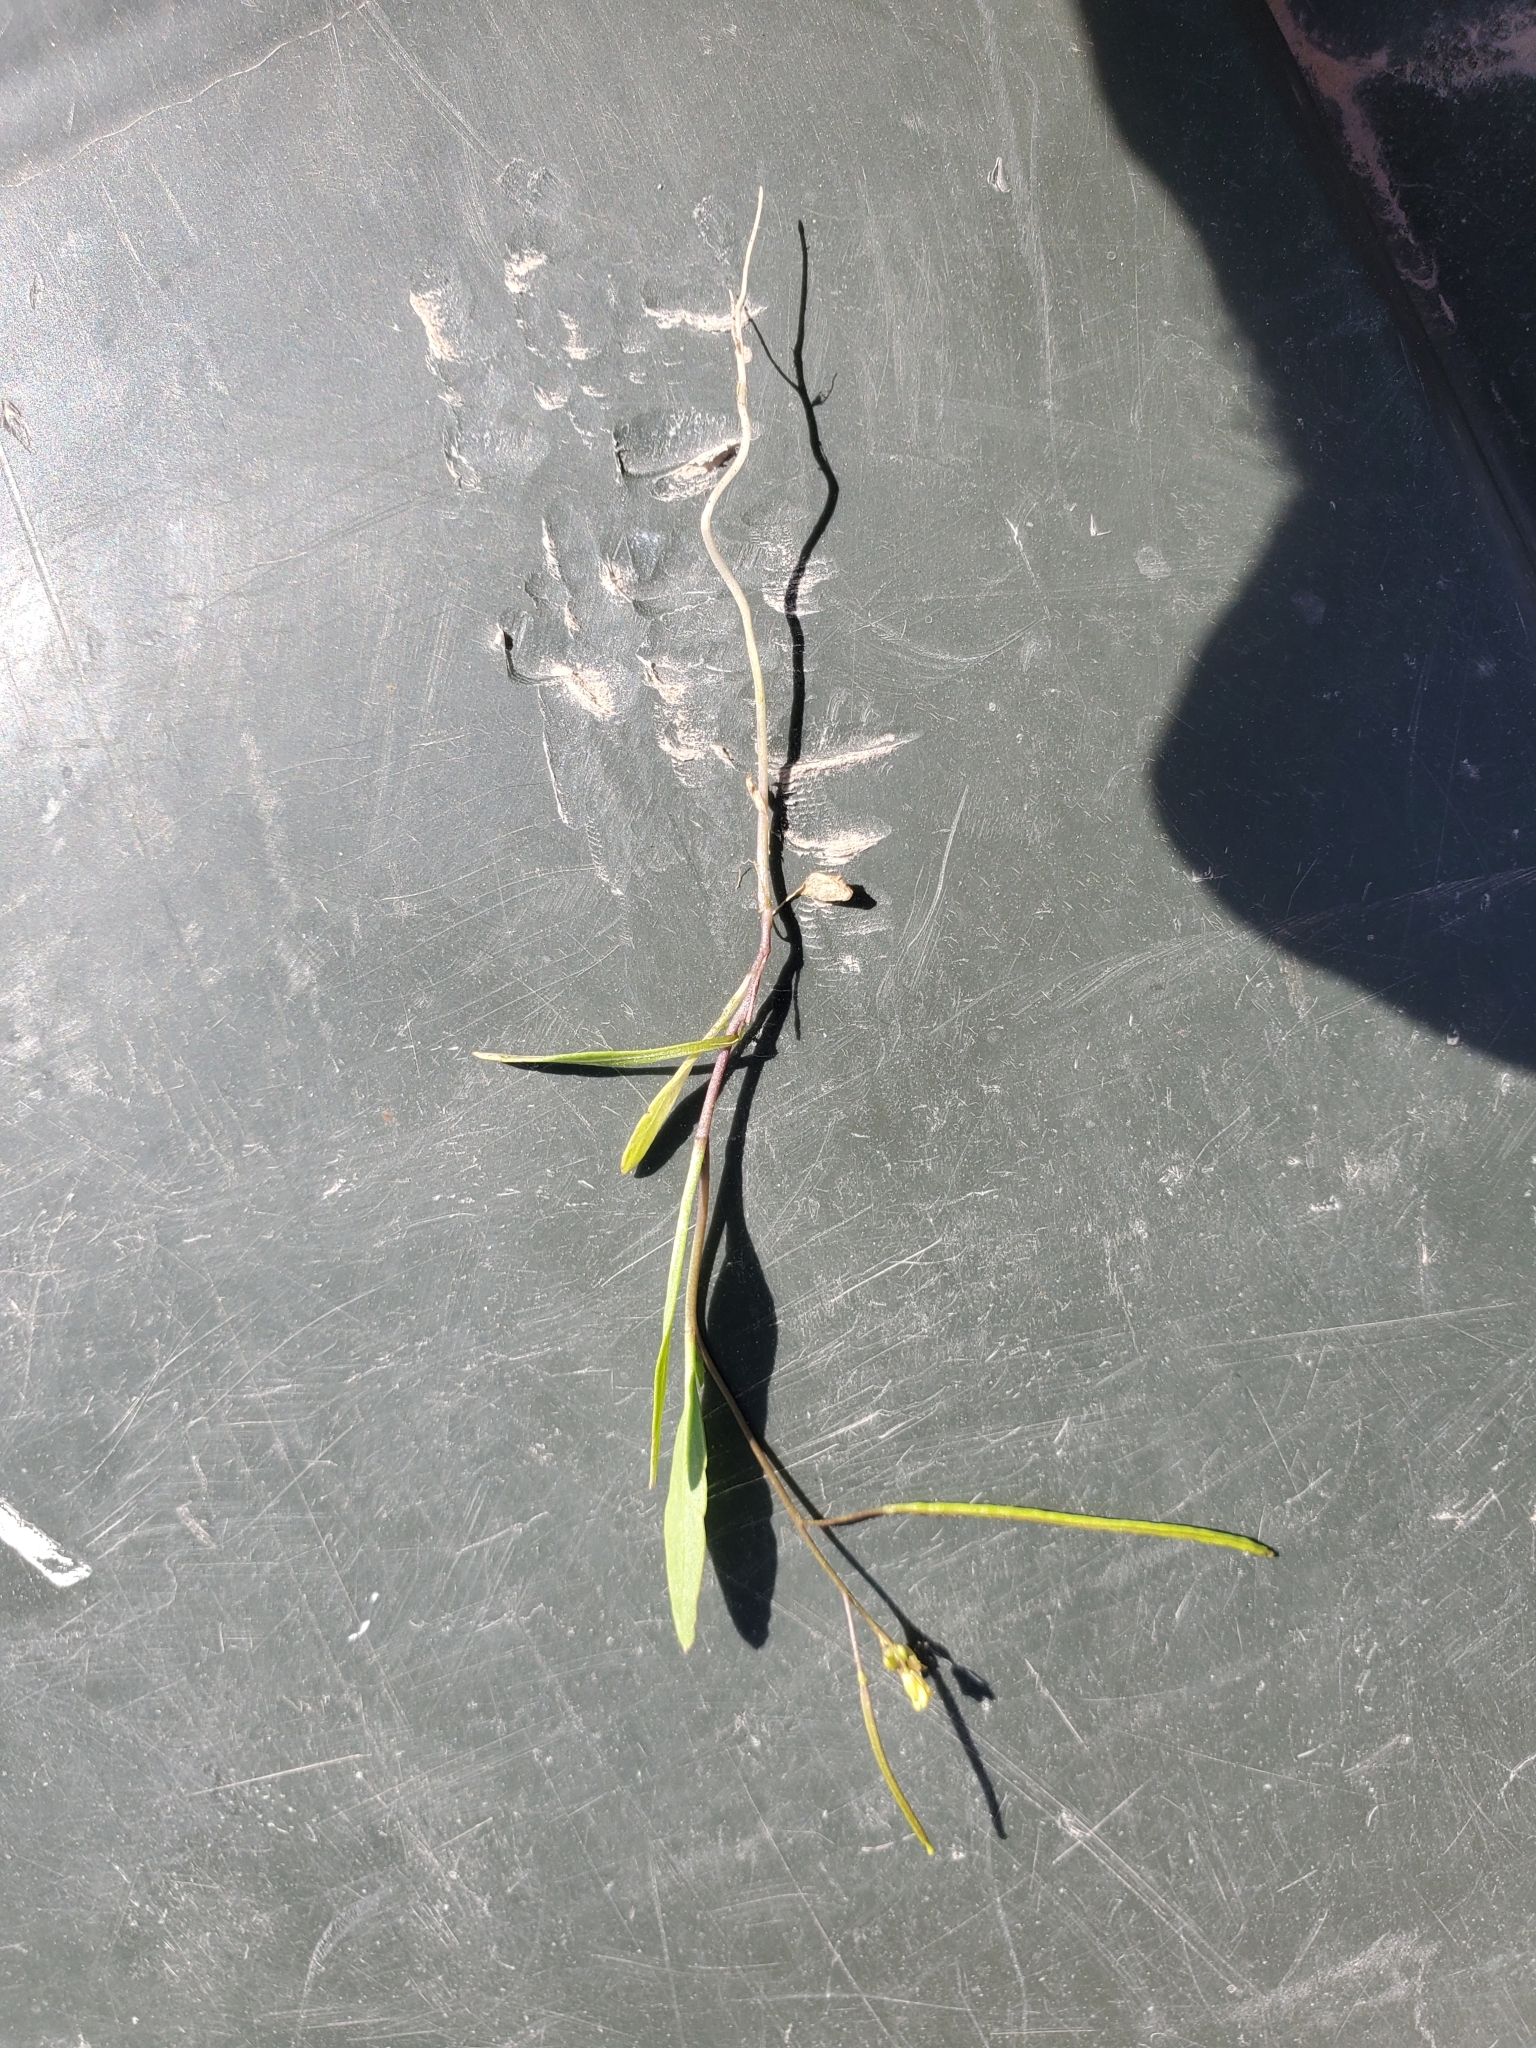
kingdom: Plantae
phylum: Tracheophyta
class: Magnoliopsida
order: Brassicales
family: Brassicaceae
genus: Sisymbrium
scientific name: Sisymbrium irio
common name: London rocket
